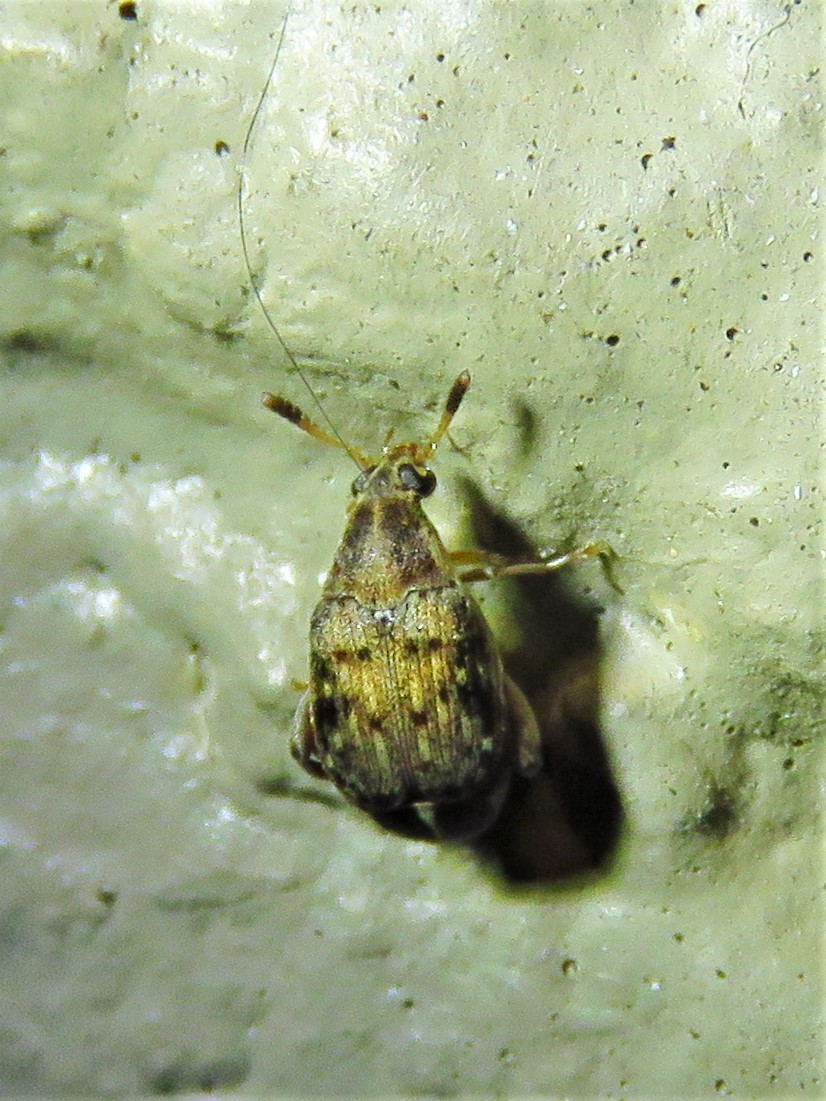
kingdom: Animalia
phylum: Arthropoda
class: Insecta
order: Coleoptera
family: Chrysomelidae
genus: Merobruchus
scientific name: Merobruchus insolitus
